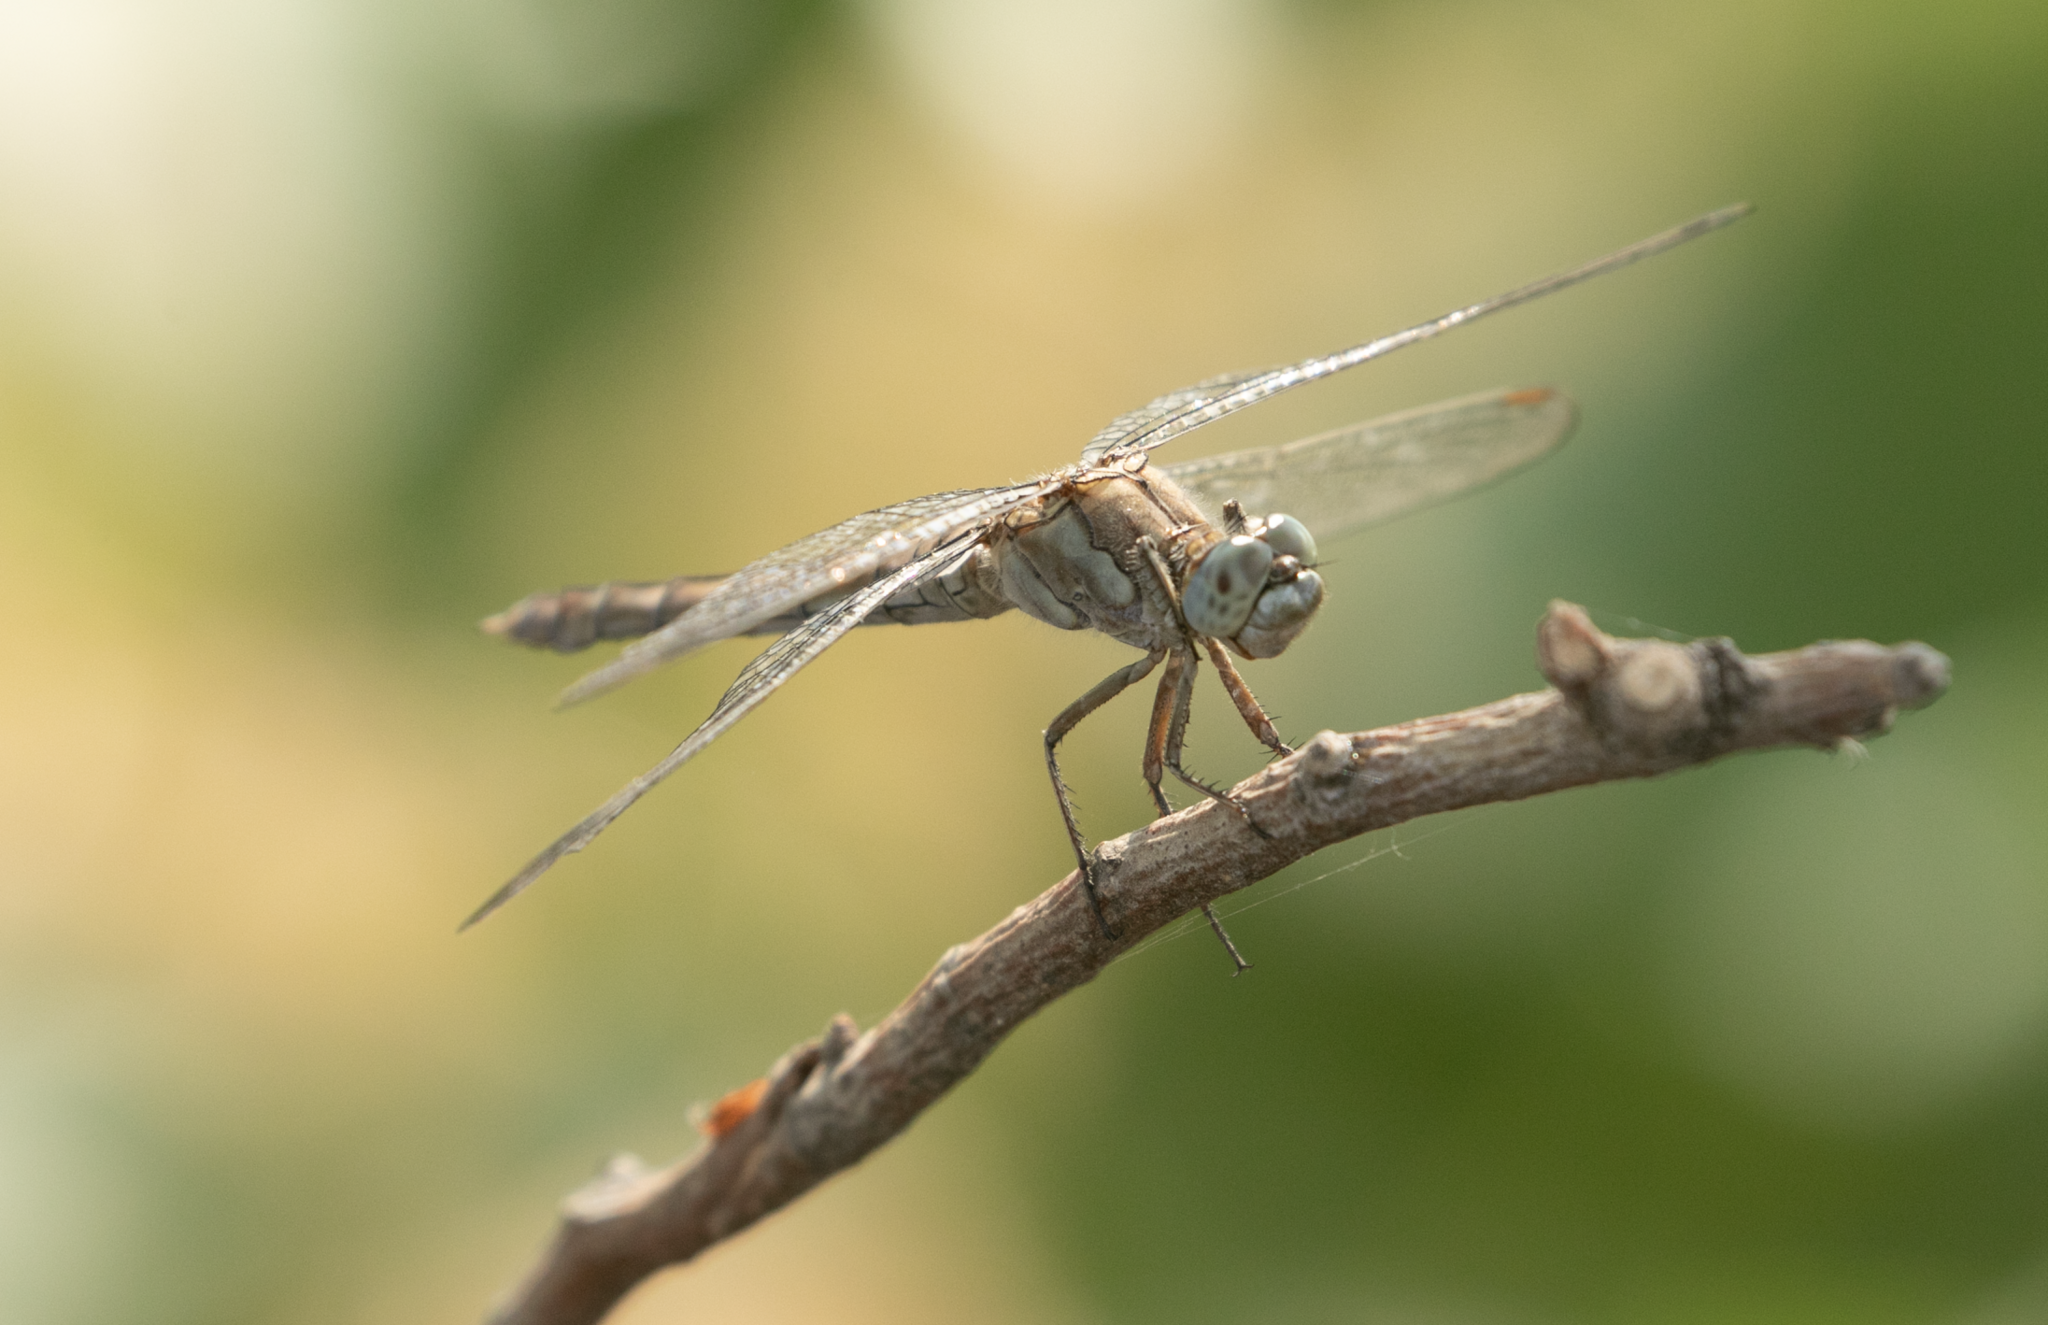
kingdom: Animalia
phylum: Arthropoda
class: Insecta
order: Odonata
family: Libellulidae
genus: Orthetrum
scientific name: Orthetrum brunneum
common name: Southern skimmer
